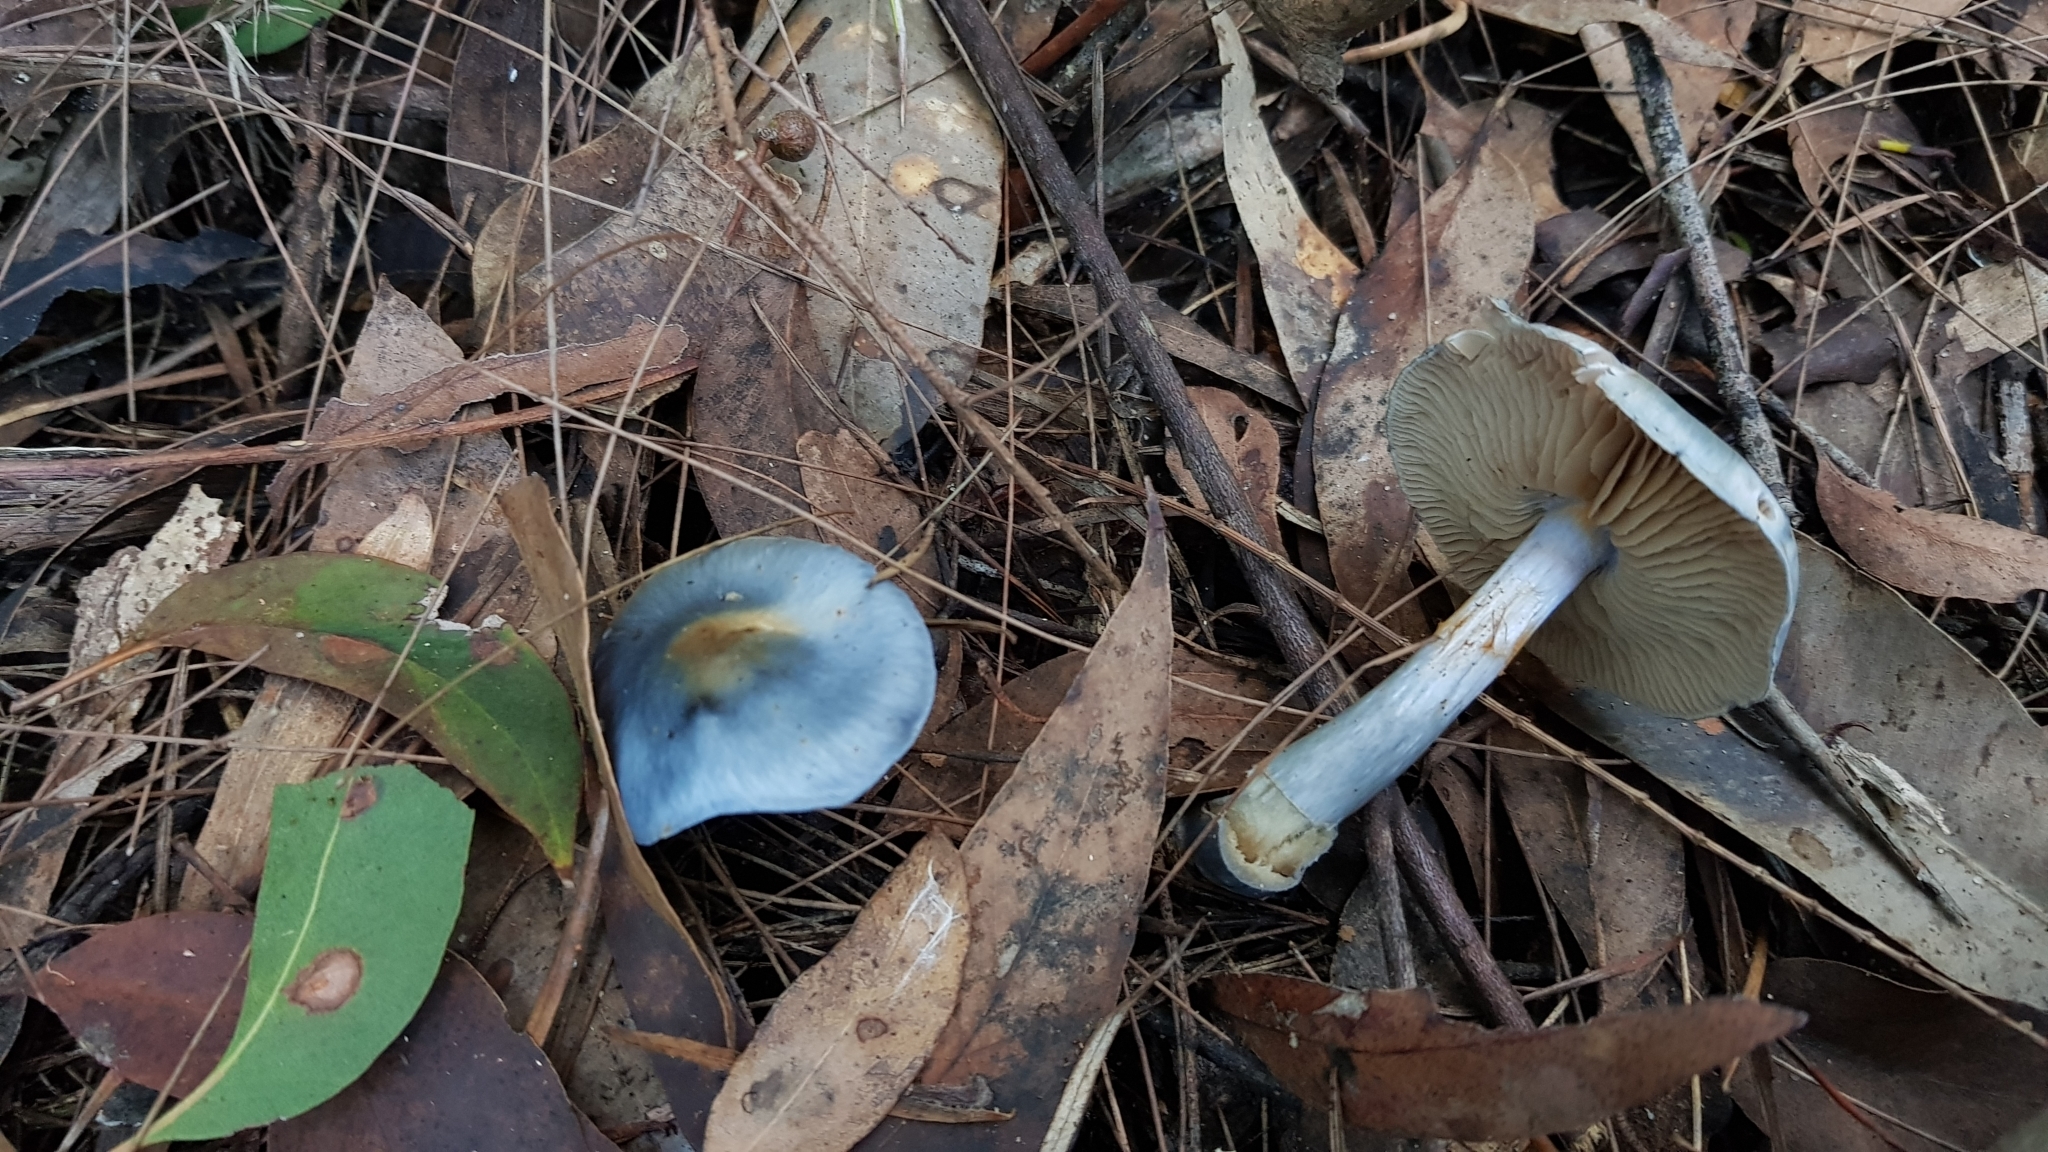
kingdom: Fungi
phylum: Basidiomycota
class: Agaricomycetes
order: Agaricales
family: Cortinariaceae
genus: Cortinarius
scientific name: Cortinarius rotundisporus
